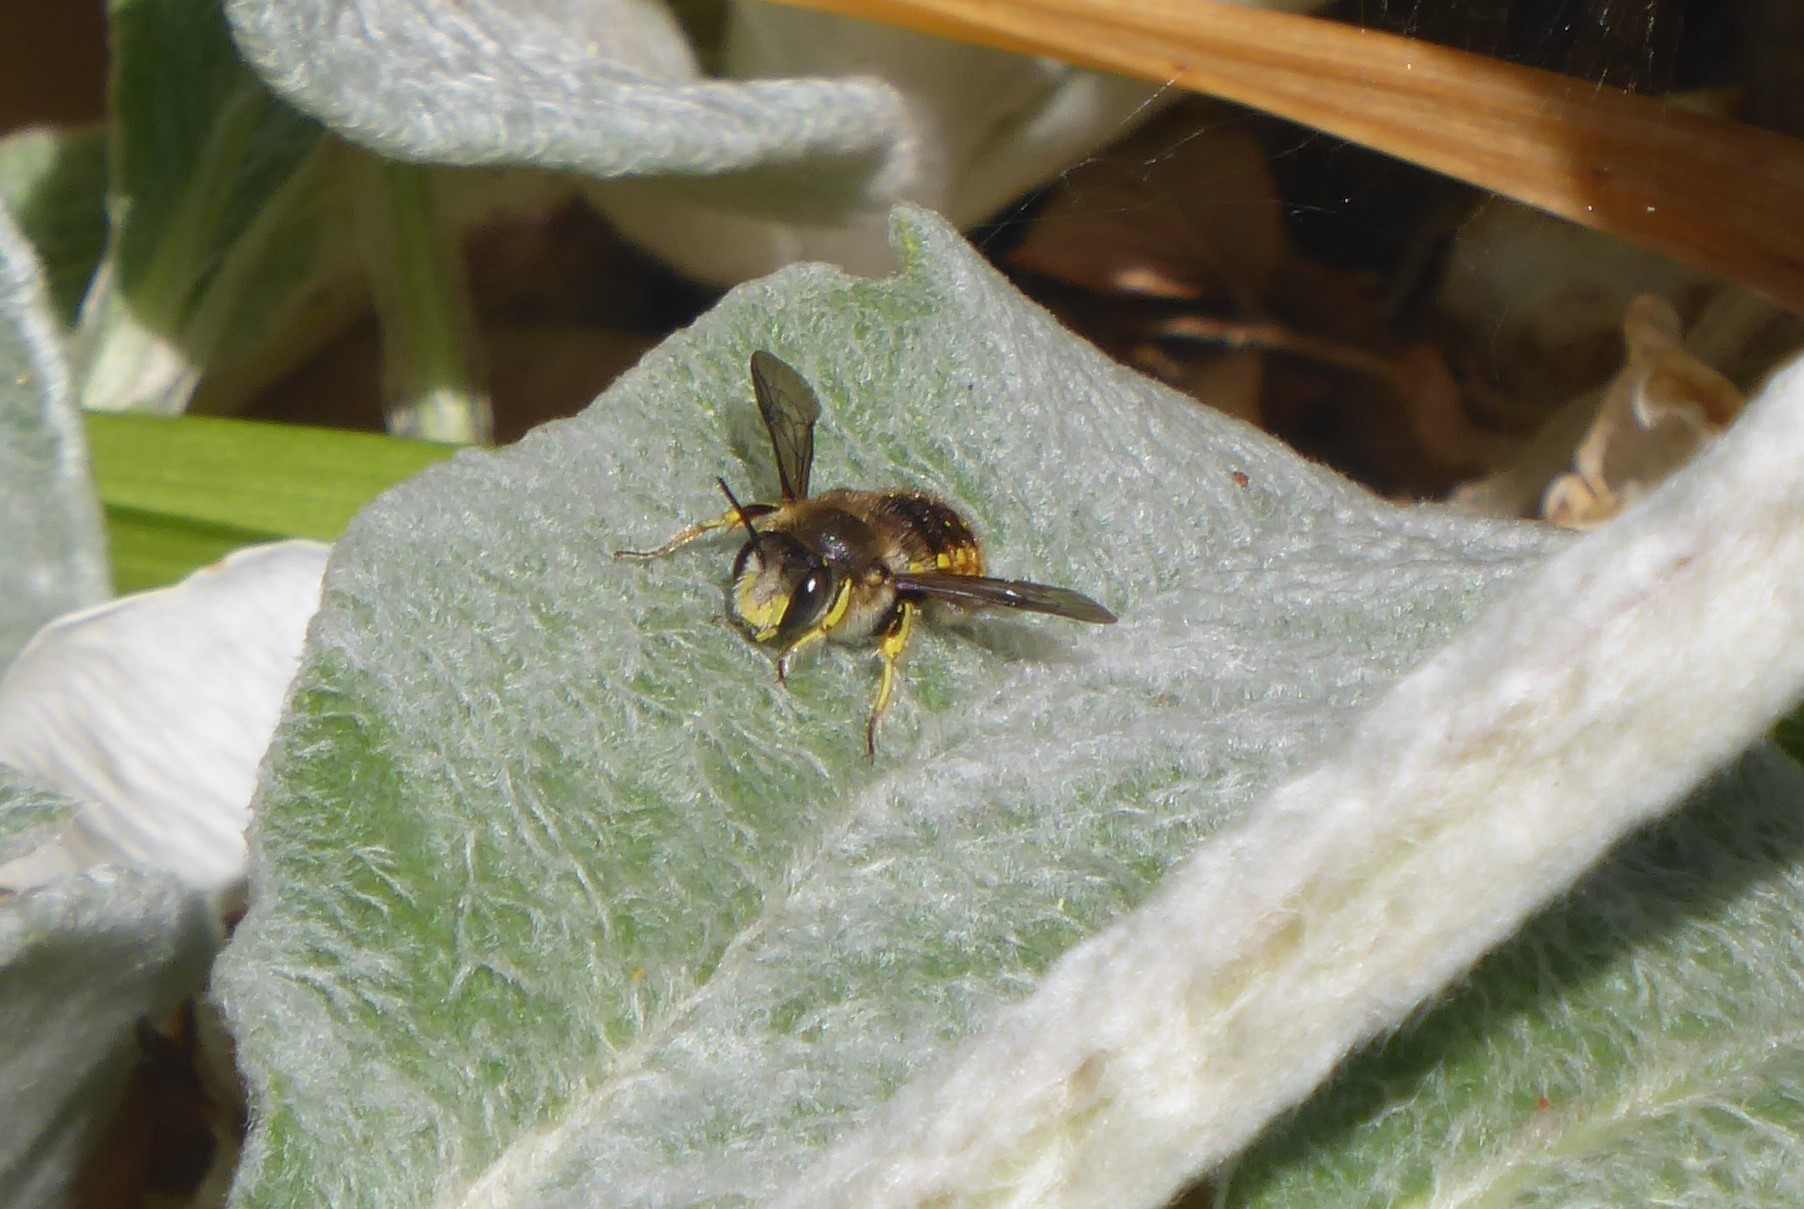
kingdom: Animalia
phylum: Arthropoda
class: Insecta
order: Hymenoptera
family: Megachilidae
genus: Anthidium
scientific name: Anthidium manicatum
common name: Wool carder bee
